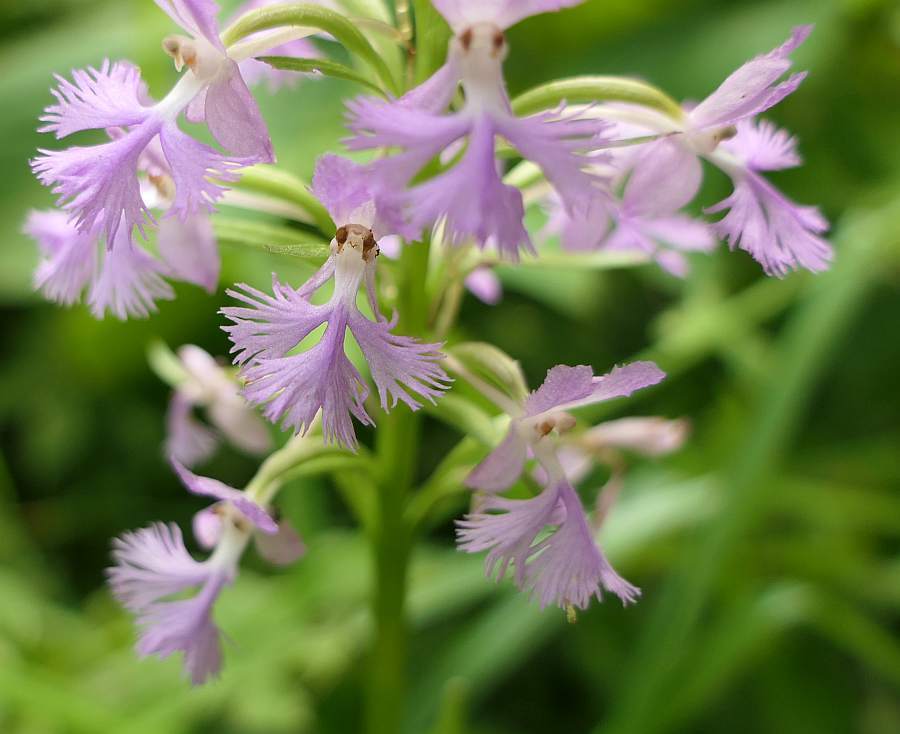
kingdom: Plantae
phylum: Tracheophyta
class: Liliopsida
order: Asparagales
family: Orchidaceae
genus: Platanthera
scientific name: Platanthera psycodes
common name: Lesser purple fringed orchid
